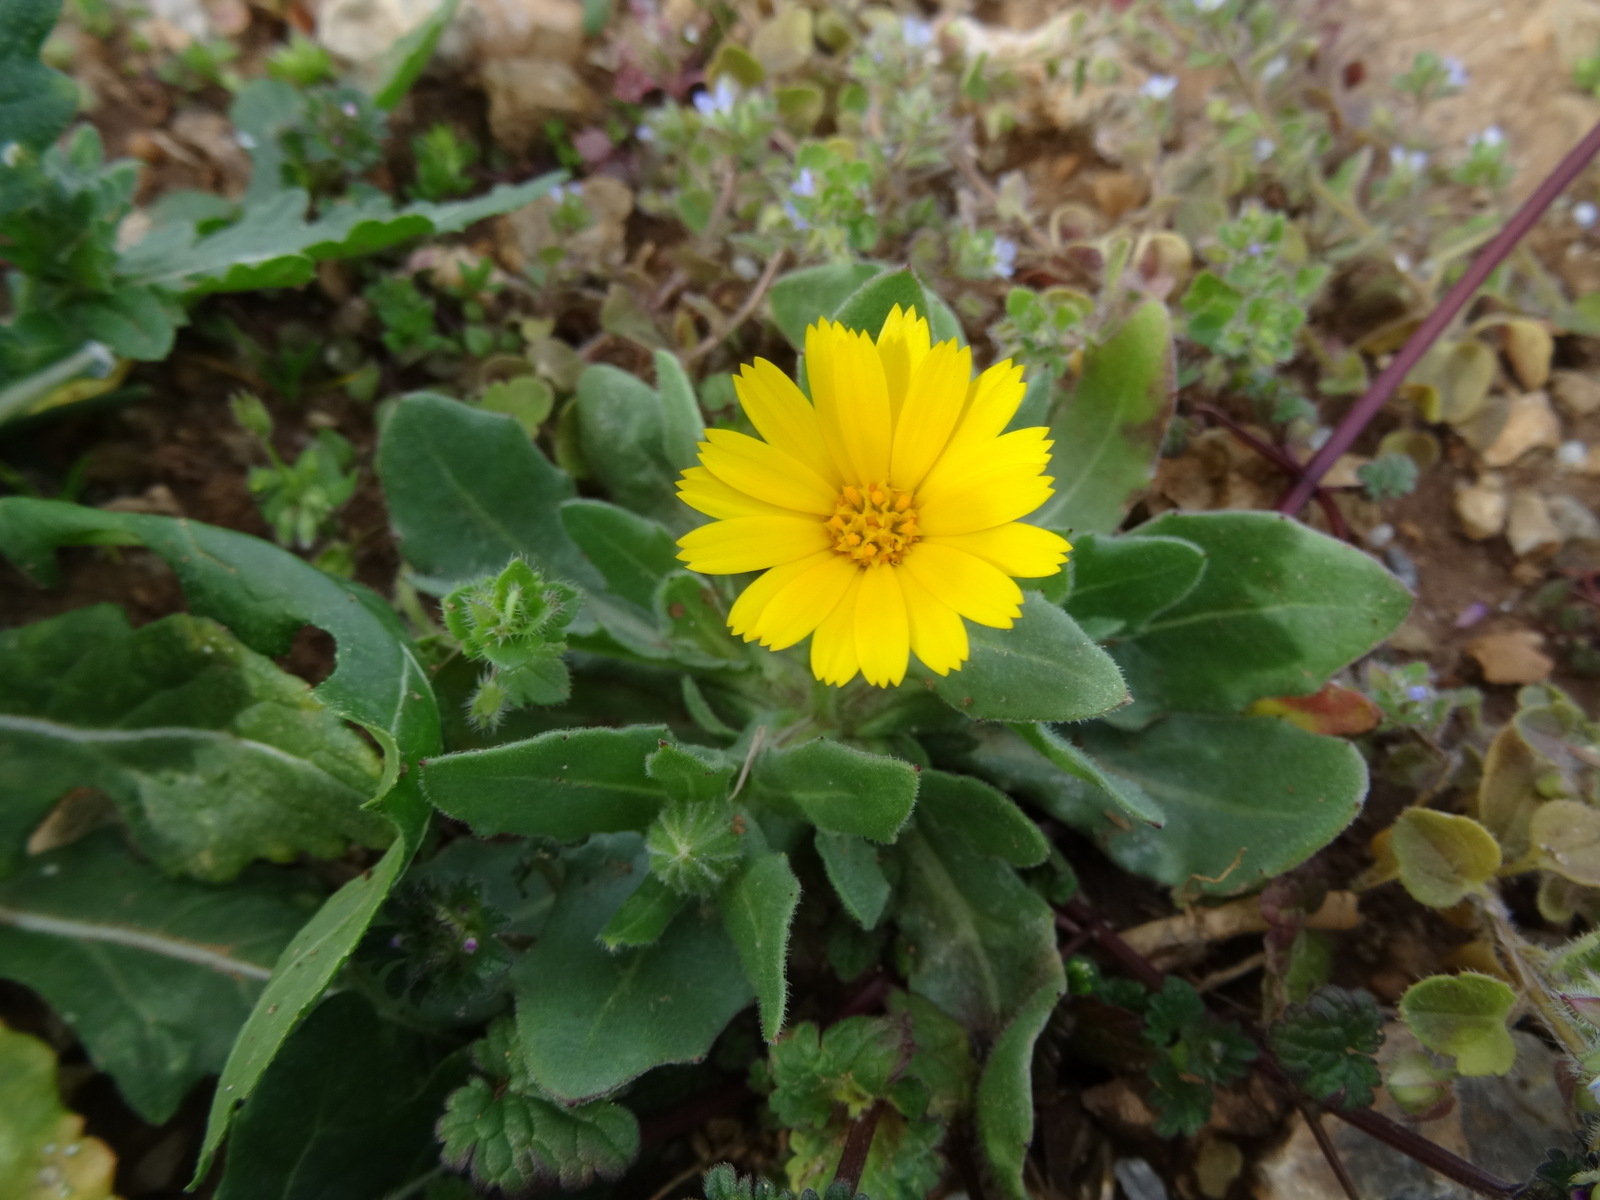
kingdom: Plantae
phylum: Tracheophyta
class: Magnoliopsida
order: Asterales
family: Asteraceae
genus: Calendula
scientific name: Calendula arvensis
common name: Field marigold
